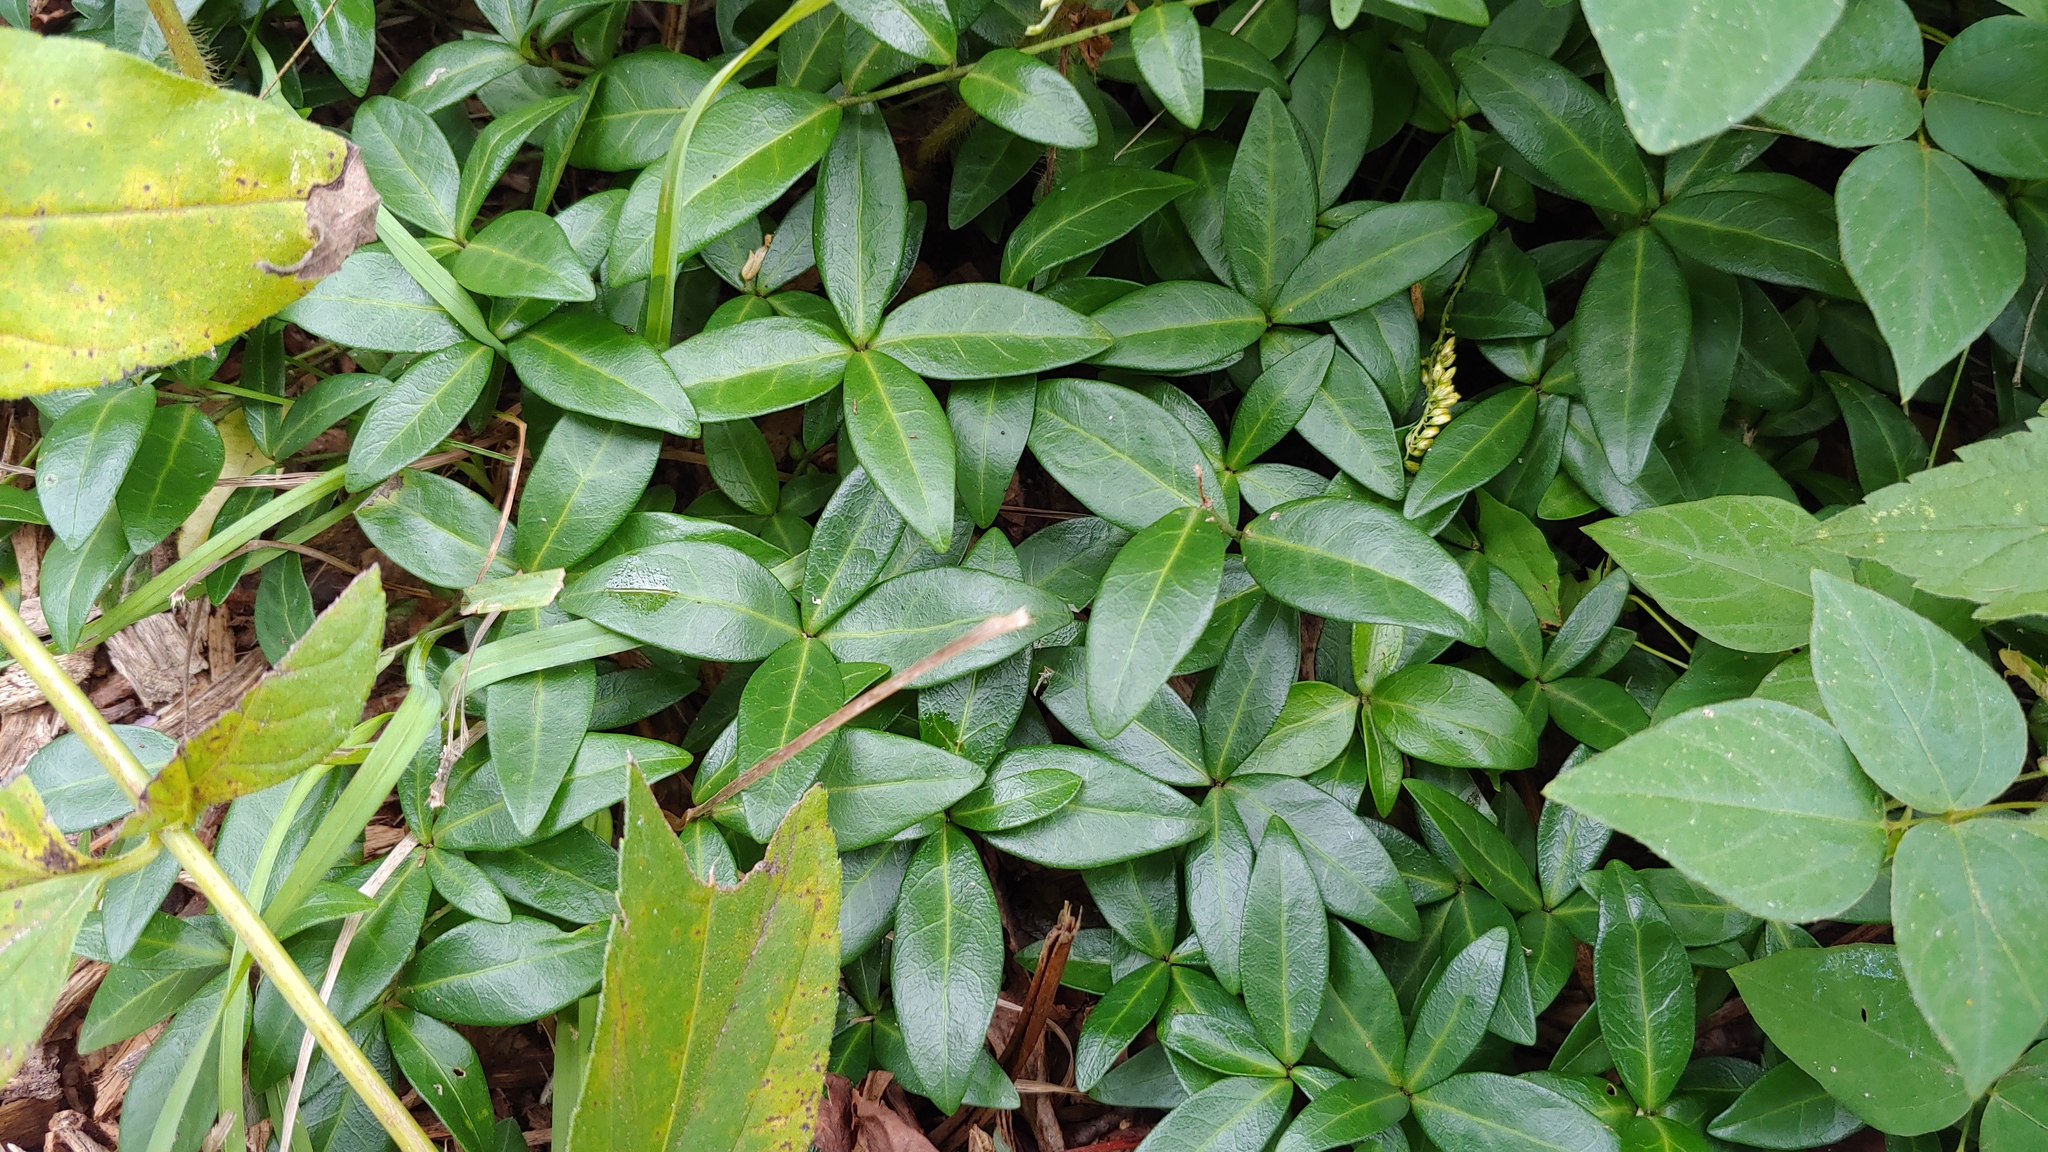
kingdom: Plantae
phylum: Tracheophyta
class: Magnoliopsida
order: Gentianales
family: Apocynaceae
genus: Vinca
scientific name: Vinca minor
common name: Lesser periwinkle
